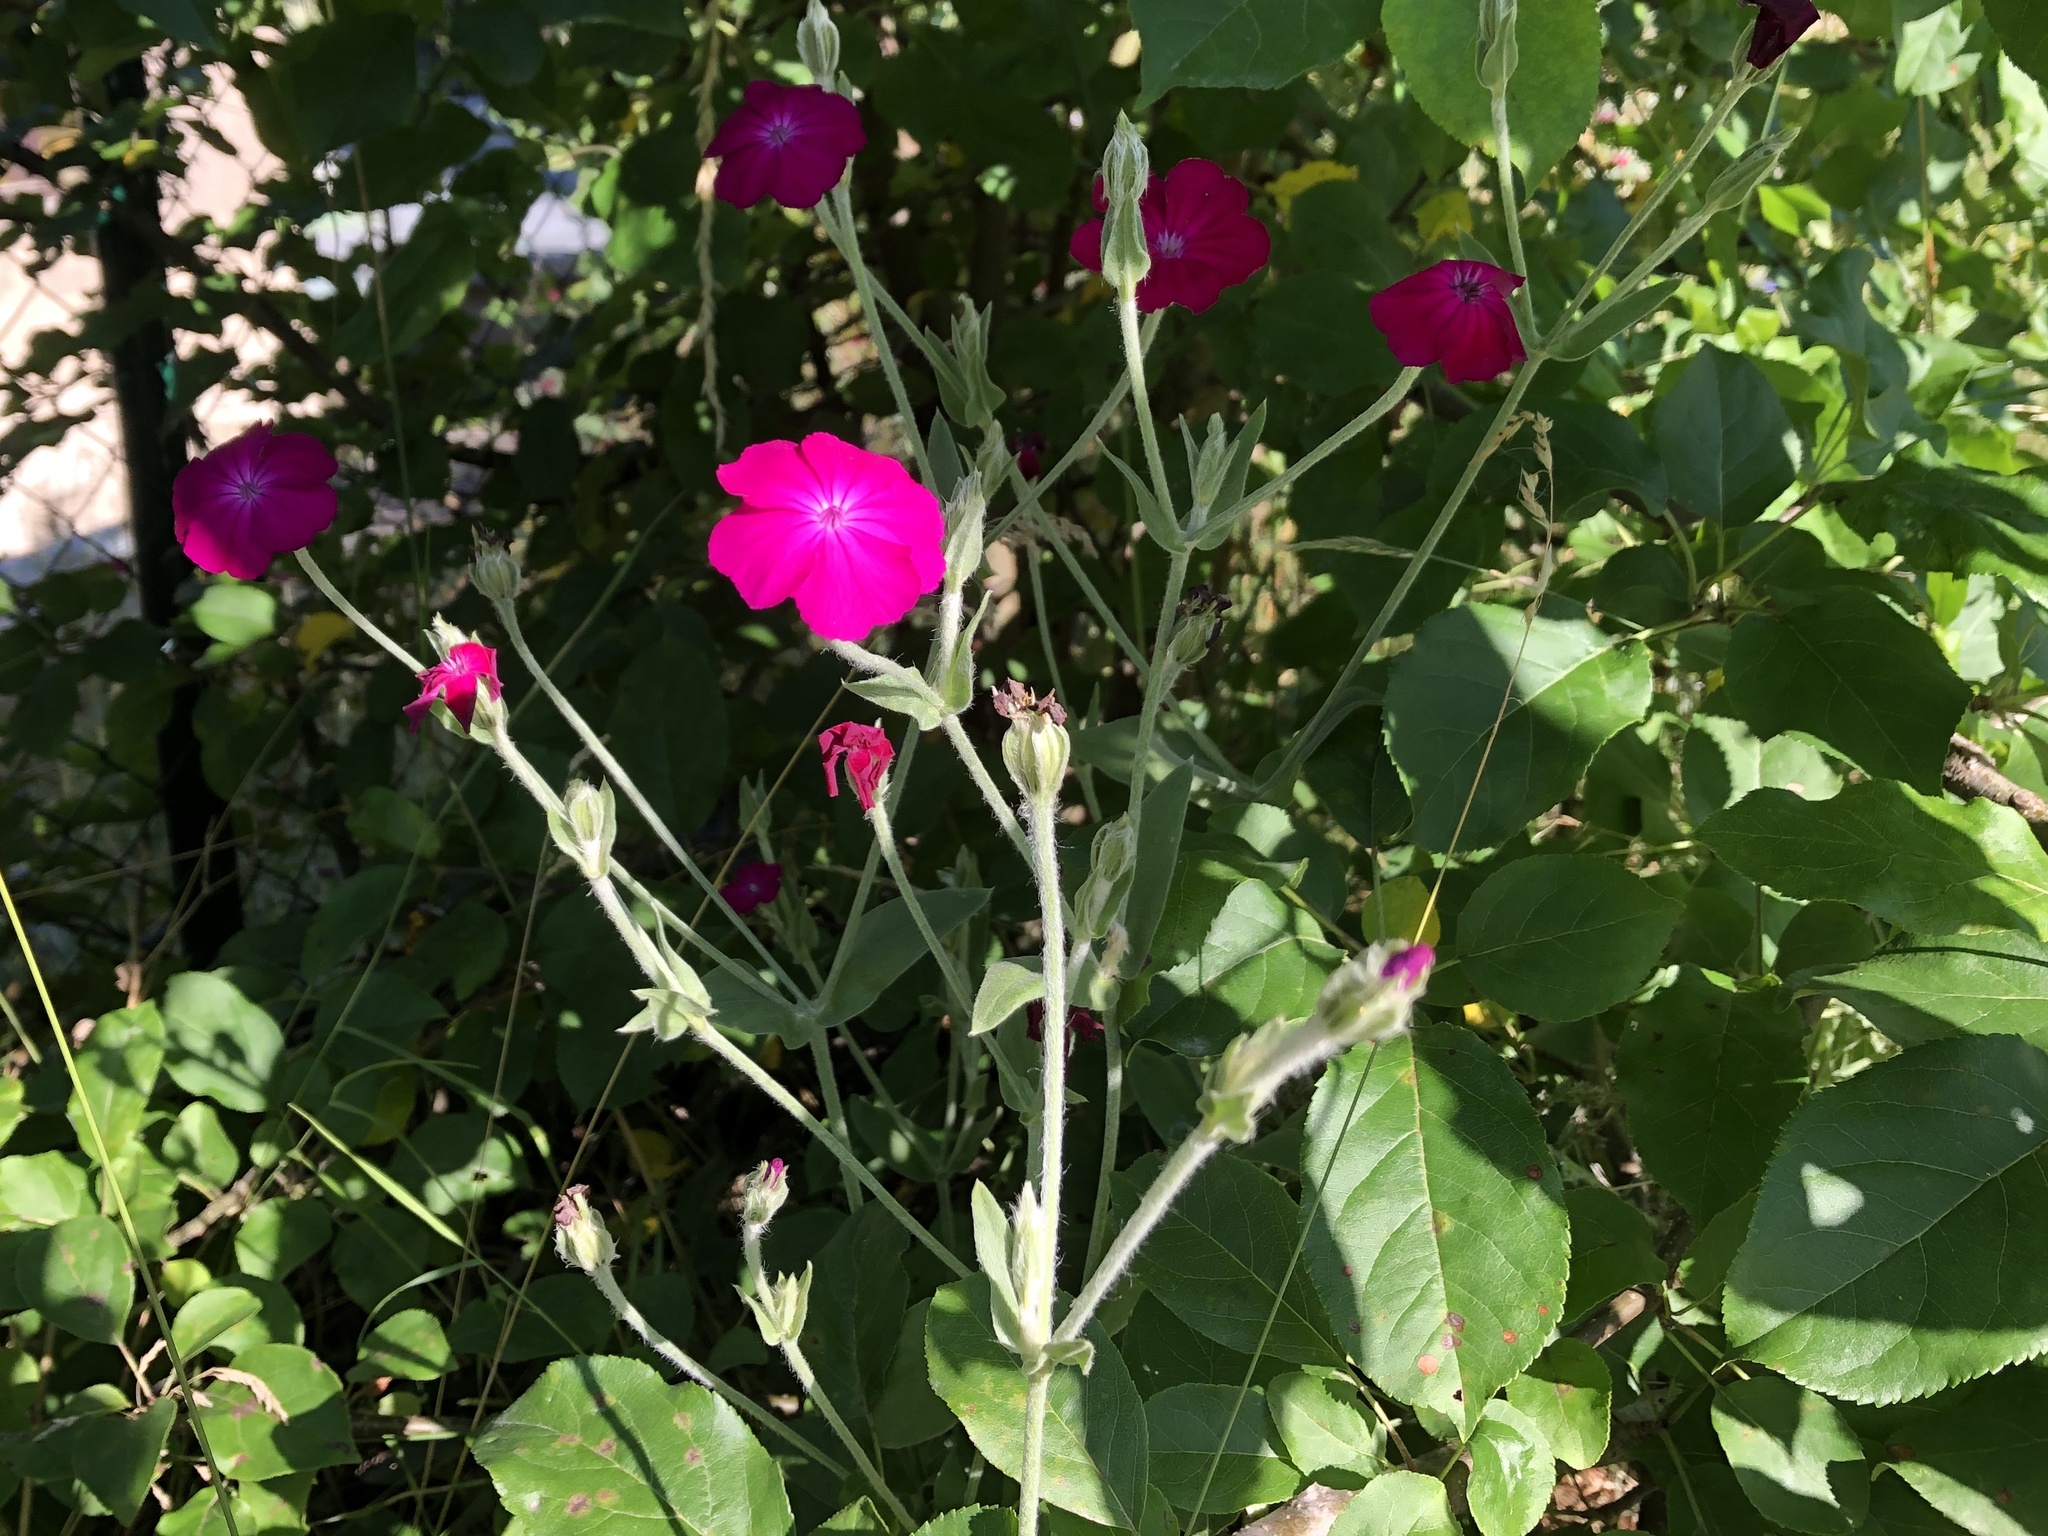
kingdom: Plantae
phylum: Tracheophyta
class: Magnoliopsida
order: Caryophyllales
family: Caryophyllaceae
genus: Silene
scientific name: Silene coronaria
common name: Rose campion
